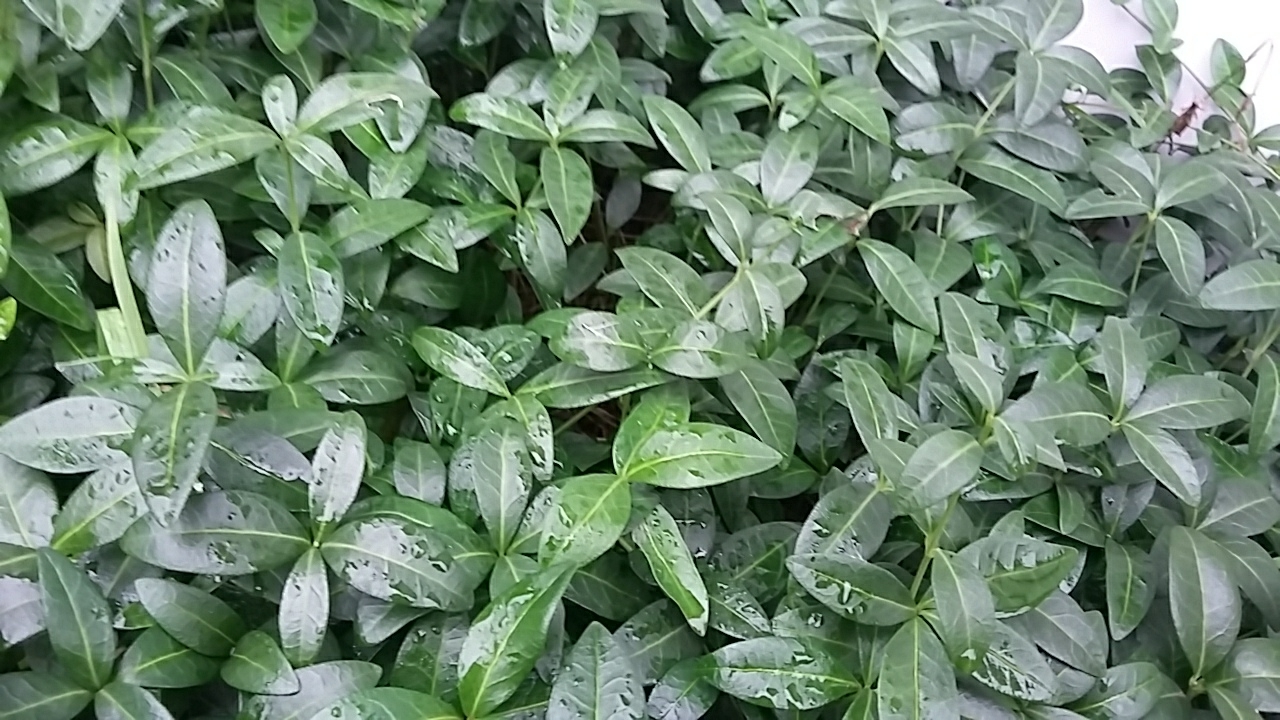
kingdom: Plantae
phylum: Tracheophyta
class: Magnoliopsida
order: Gentianales
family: Apocynaceae
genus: Vinca
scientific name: Vinca minor
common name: Lesser periwinkle
